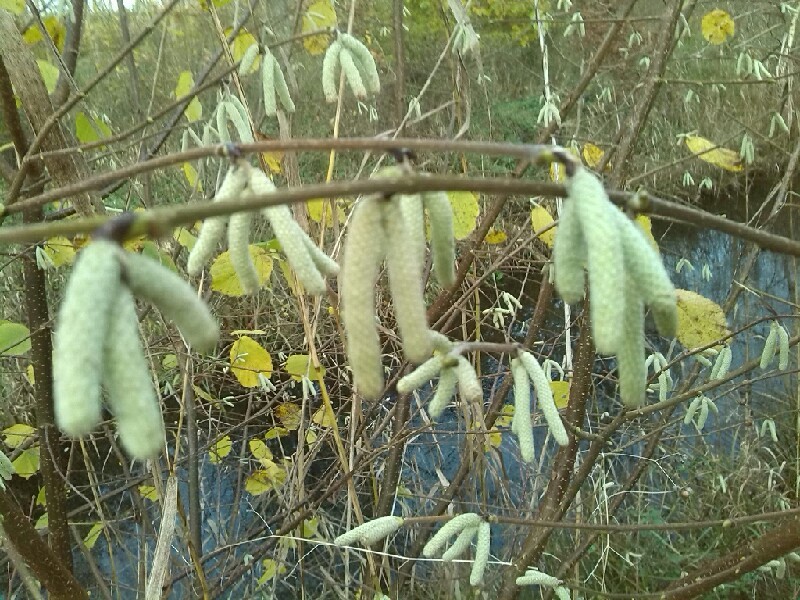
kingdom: Plantae
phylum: Tracheophyta
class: Magnoliopsida
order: Fagales
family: Betulaceae
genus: Corylus
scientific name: Corylus avellana
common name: European hazel
